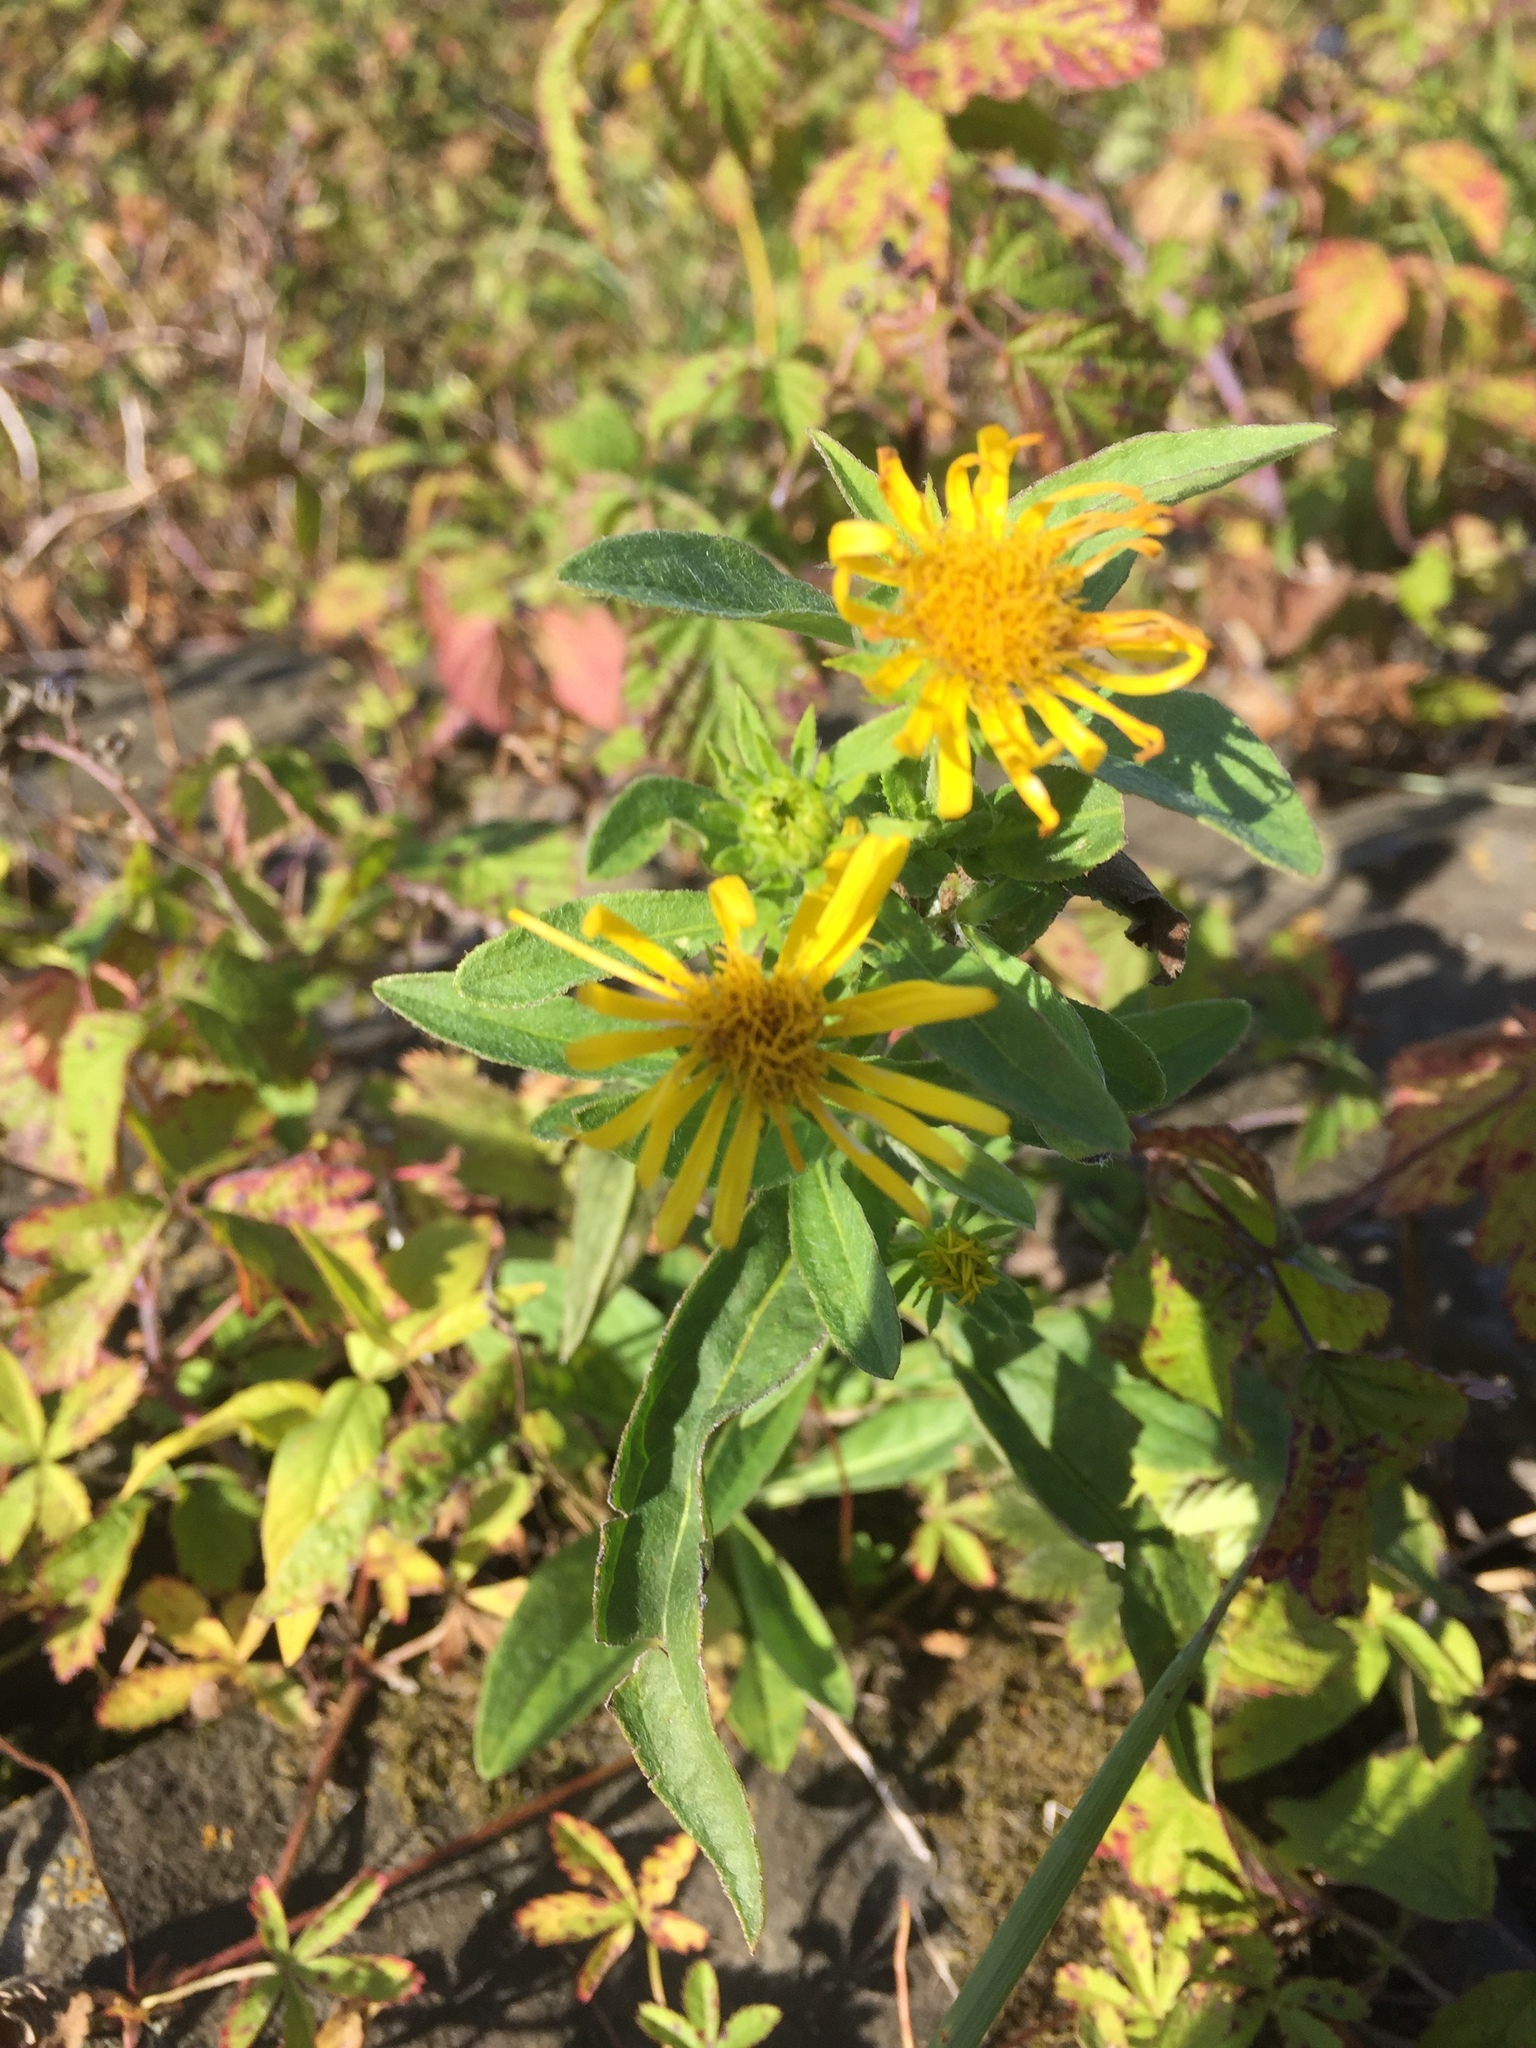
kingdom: Plantae
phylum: Tracheophyta
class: Magnoliopsida
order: Asterales
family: Asteraceae
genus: Pentanema
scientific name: Pentanema britannicum
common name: British elecampane
